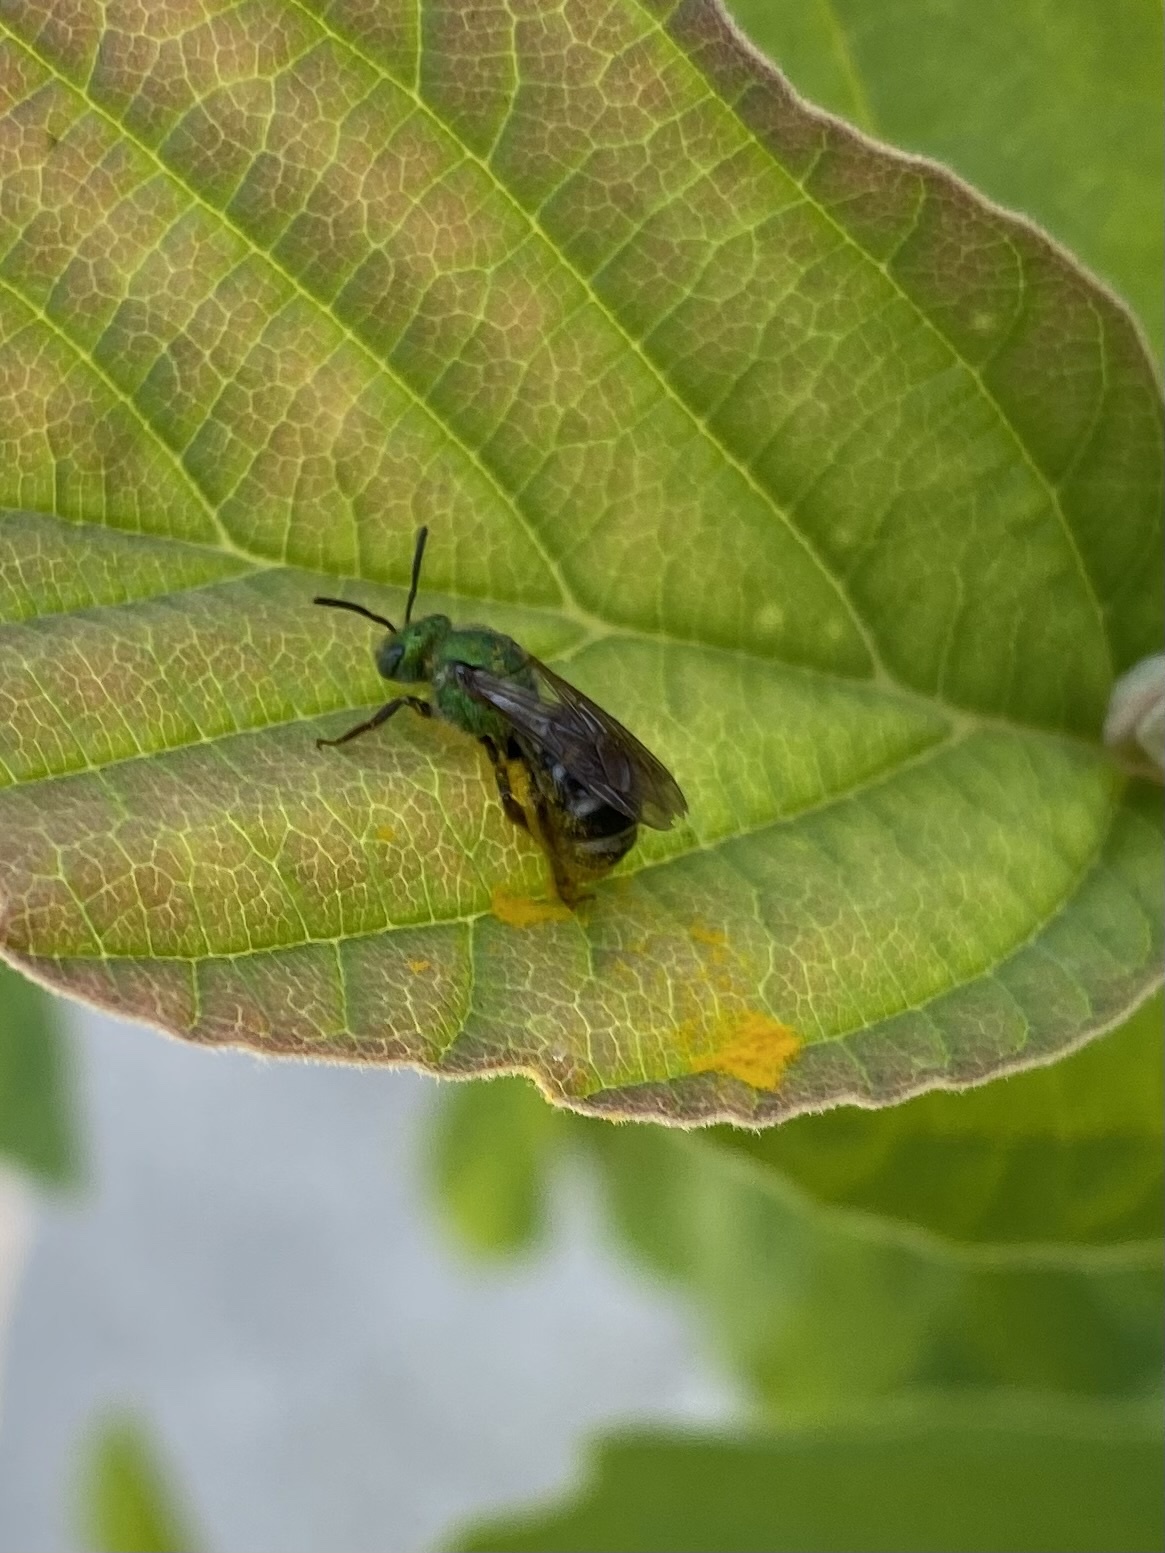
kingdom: Animalia
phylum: Arthropoda
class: Insecta
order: Hymenoptera
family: Halictidae
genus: Agapostemon
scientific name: Agapostemon virescens
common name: Bicolored striped sweat bee
